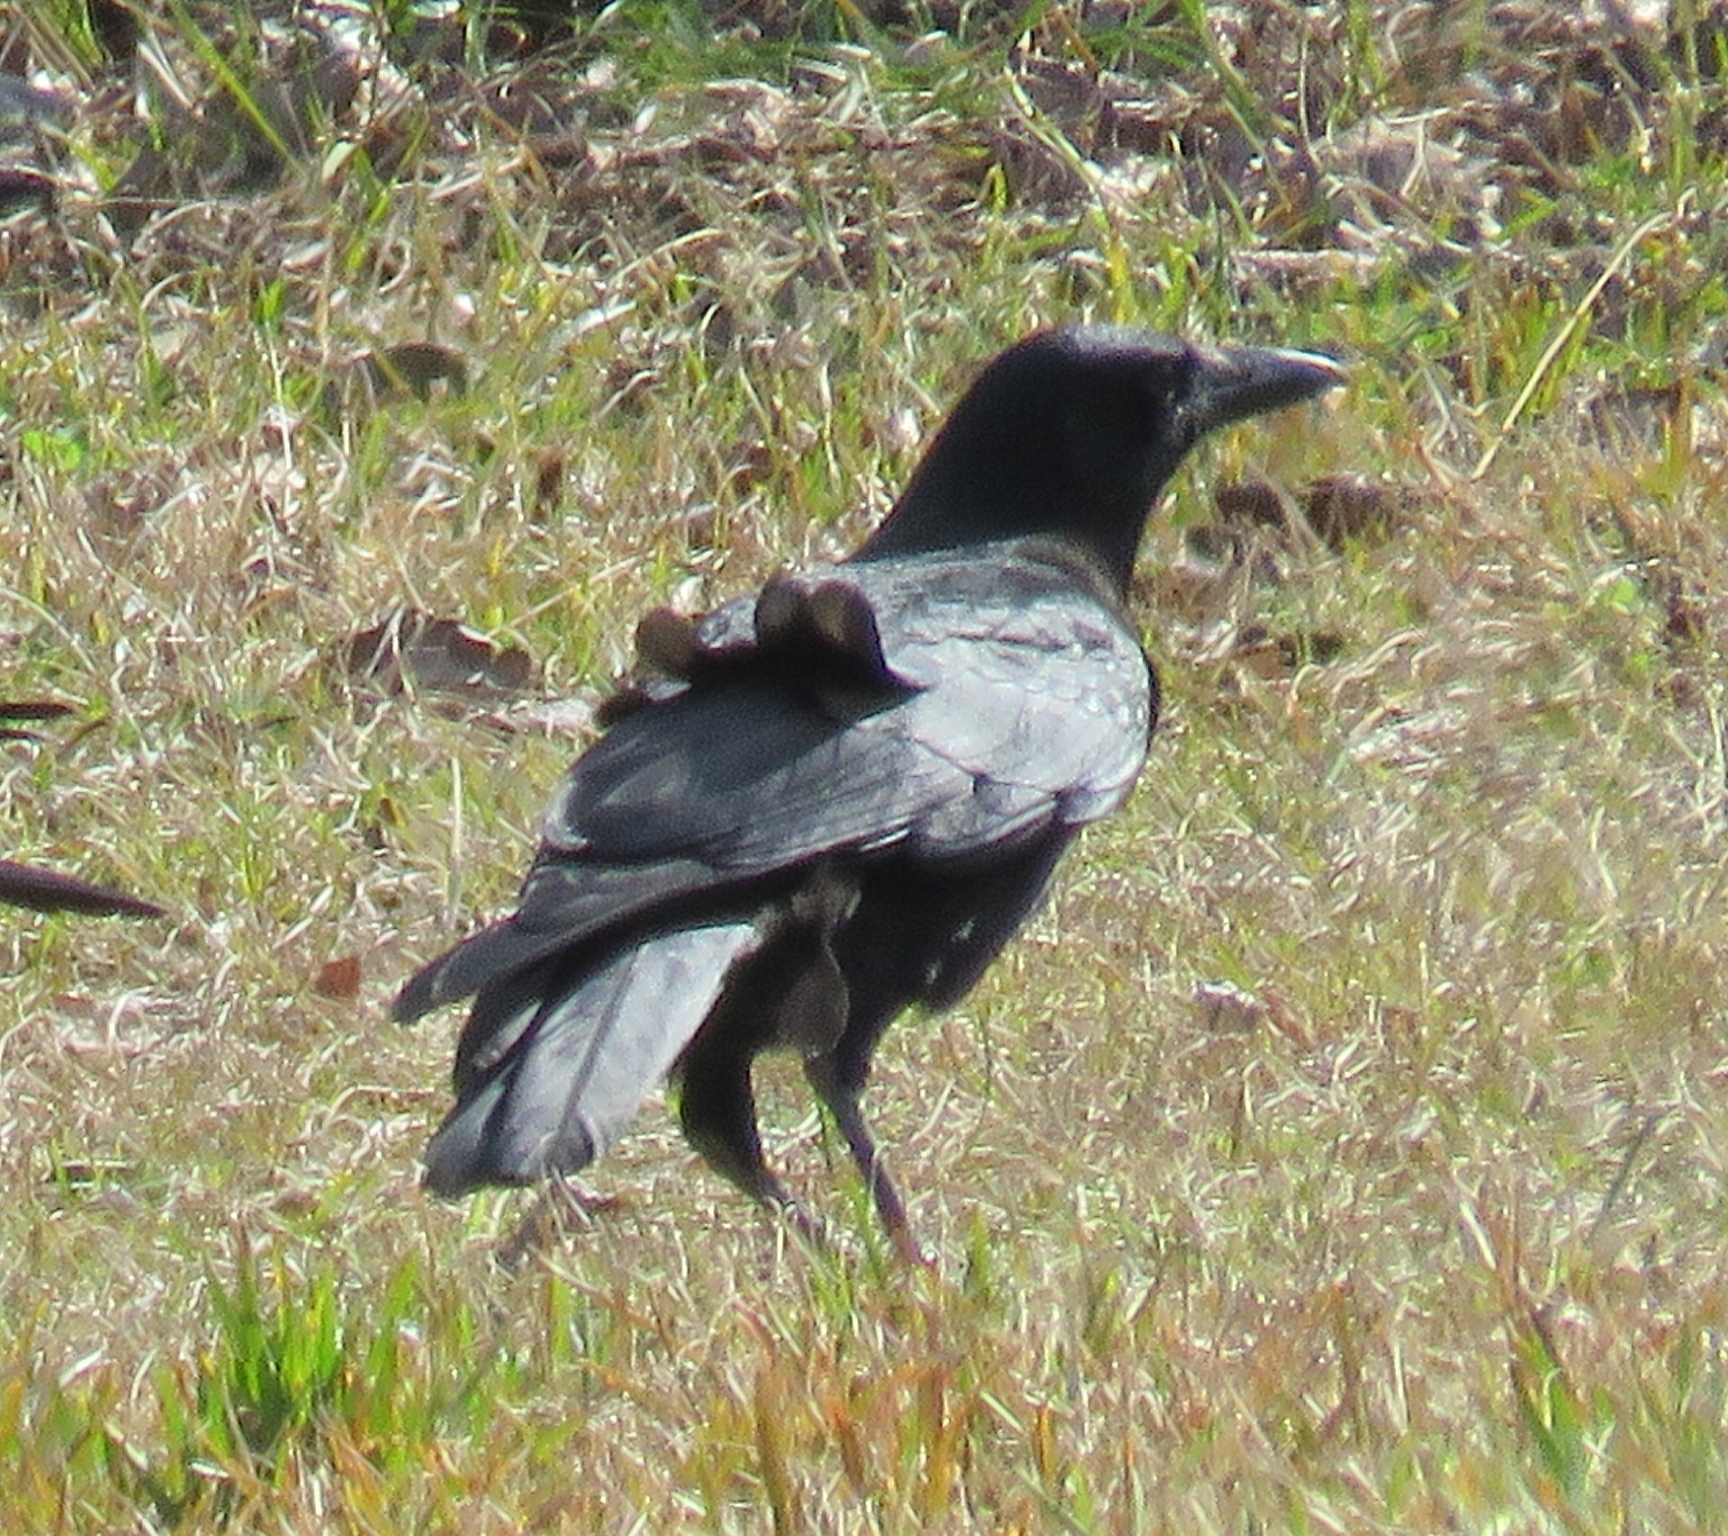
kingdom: Animalia
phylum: Chordata
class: Aves
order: Passeriformes
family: Corvidae
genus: Corvus
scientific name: Corvus brachyrhynchos
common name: American crow
